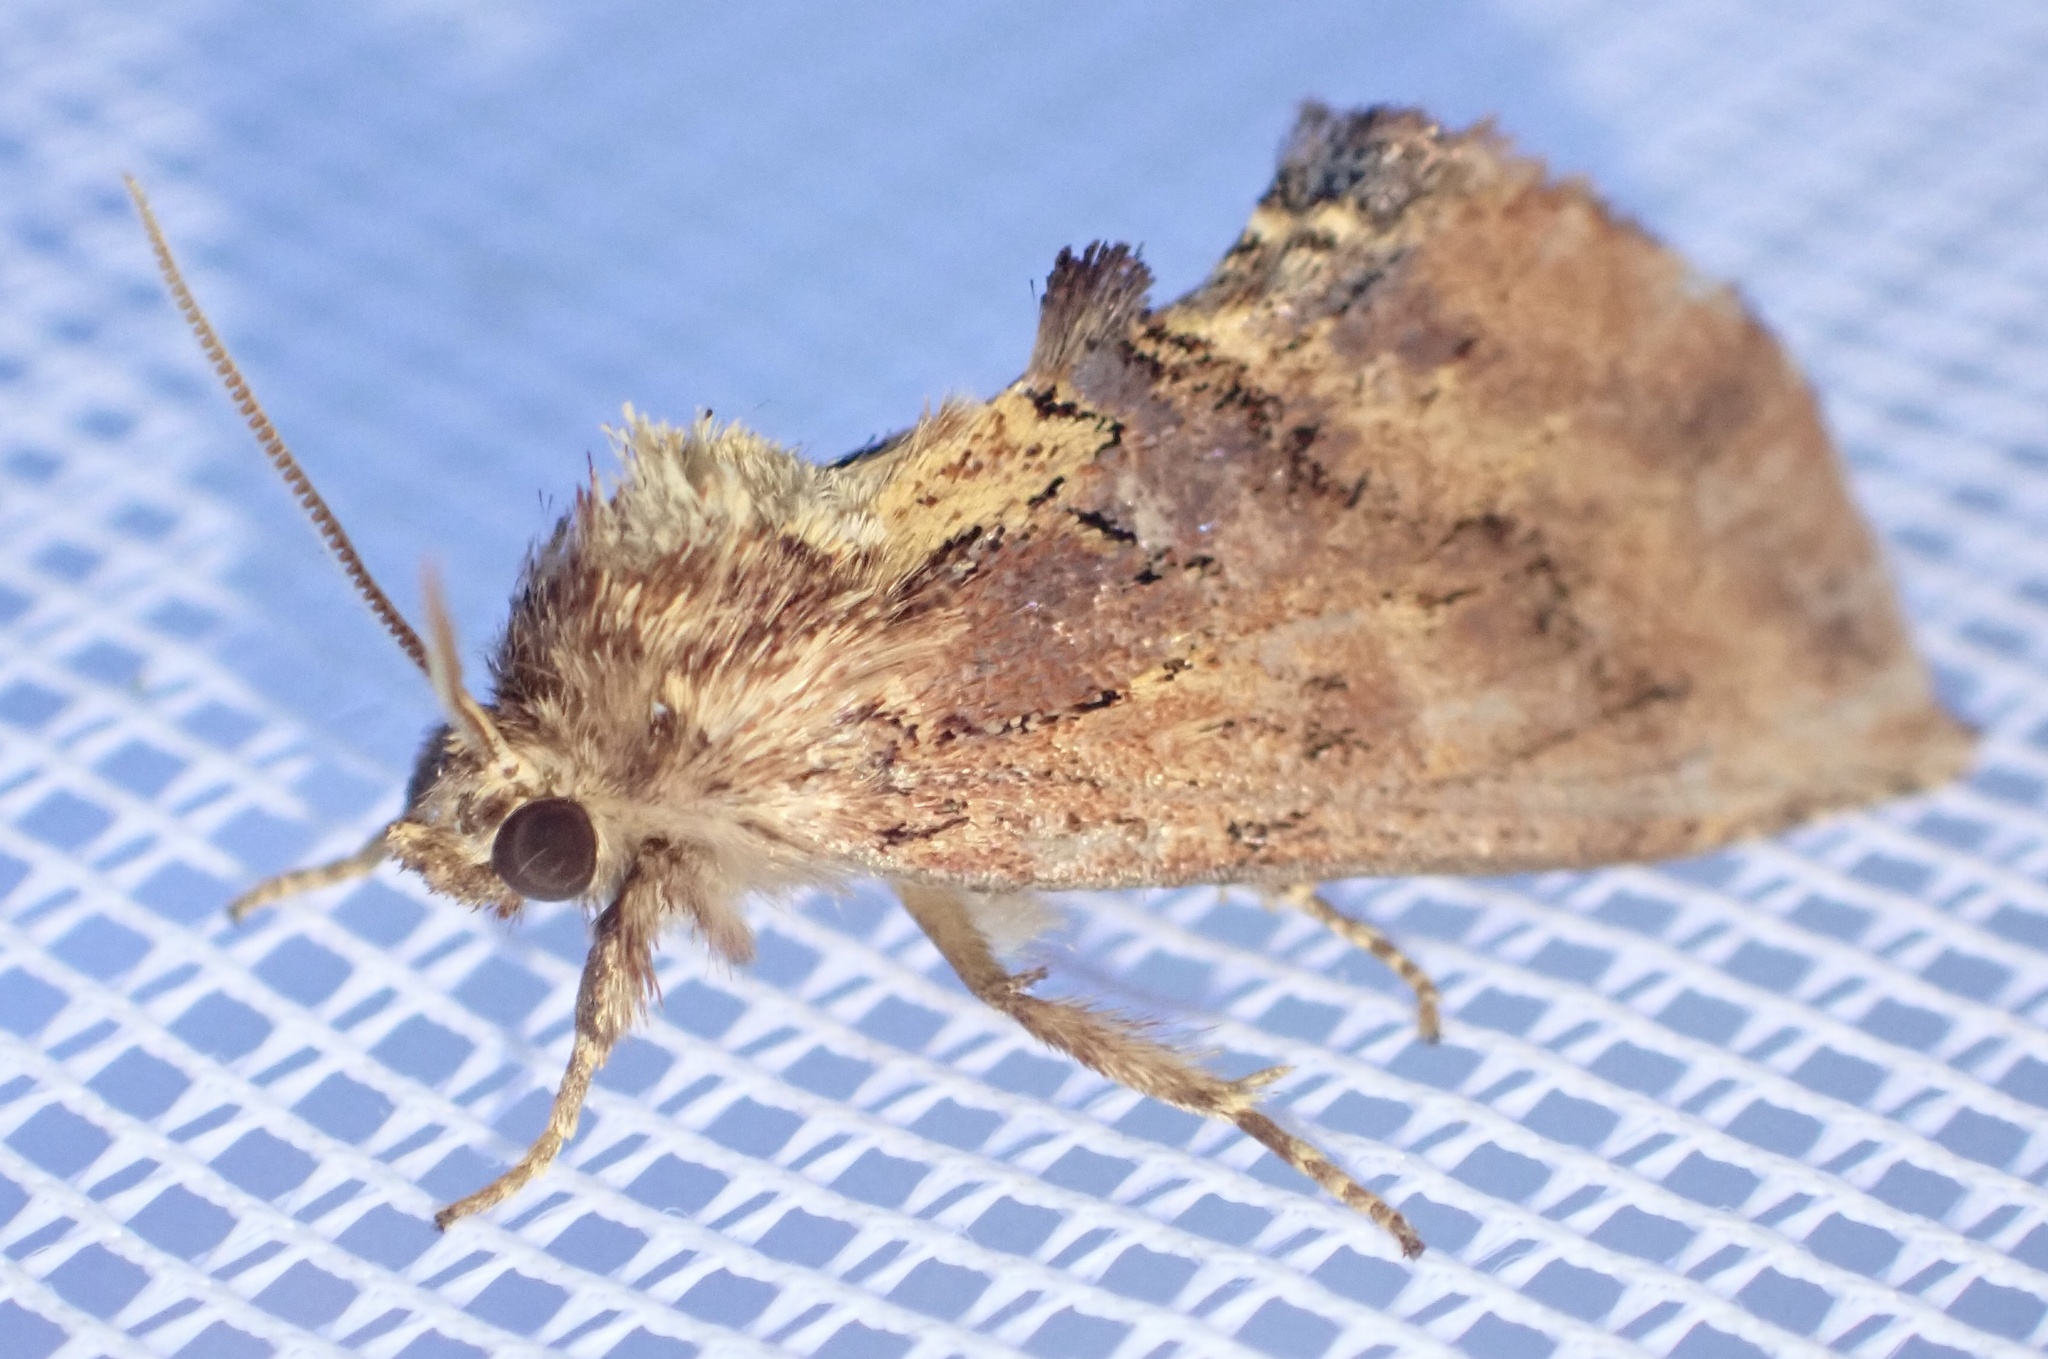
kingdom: Animalia
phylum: Arthropoda
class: Insecta
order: Lepidoptera
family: Notodontidae
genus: Ptilodon
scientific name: Ptilodon capucina
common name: Coxcomb prominent
